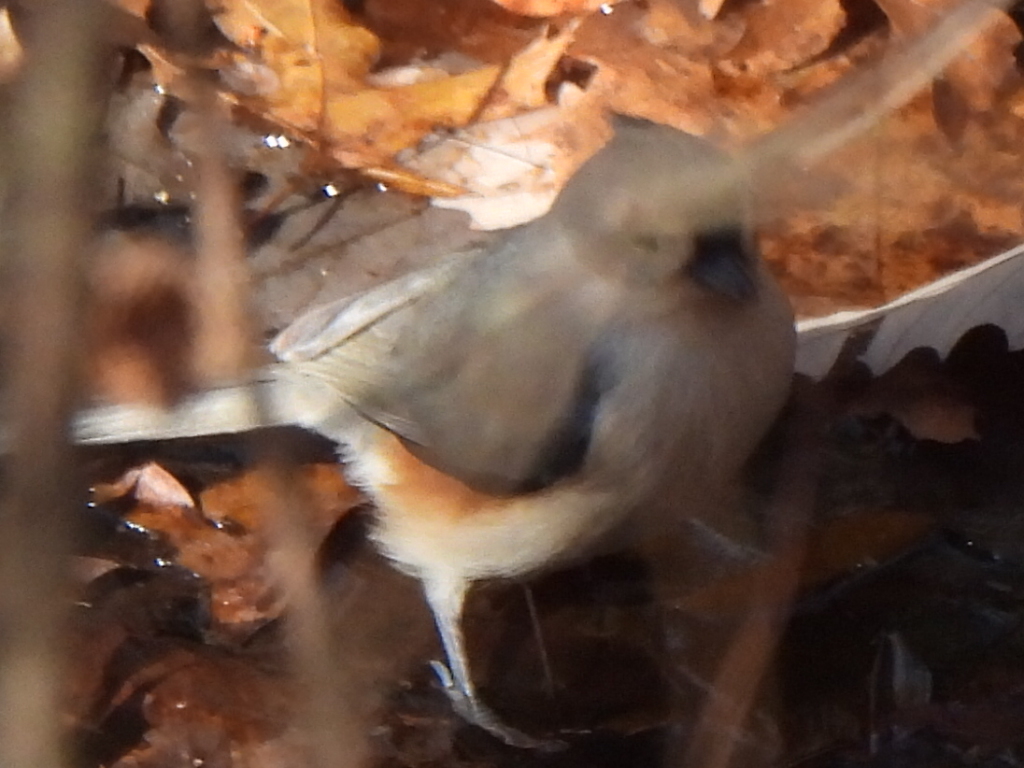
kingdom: Animalia
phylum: Chordata
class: Aves
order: Passeriformes
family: Paridae
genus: Baeolophus
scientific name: Baeolophus bicolor
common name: Tufted titmouse
